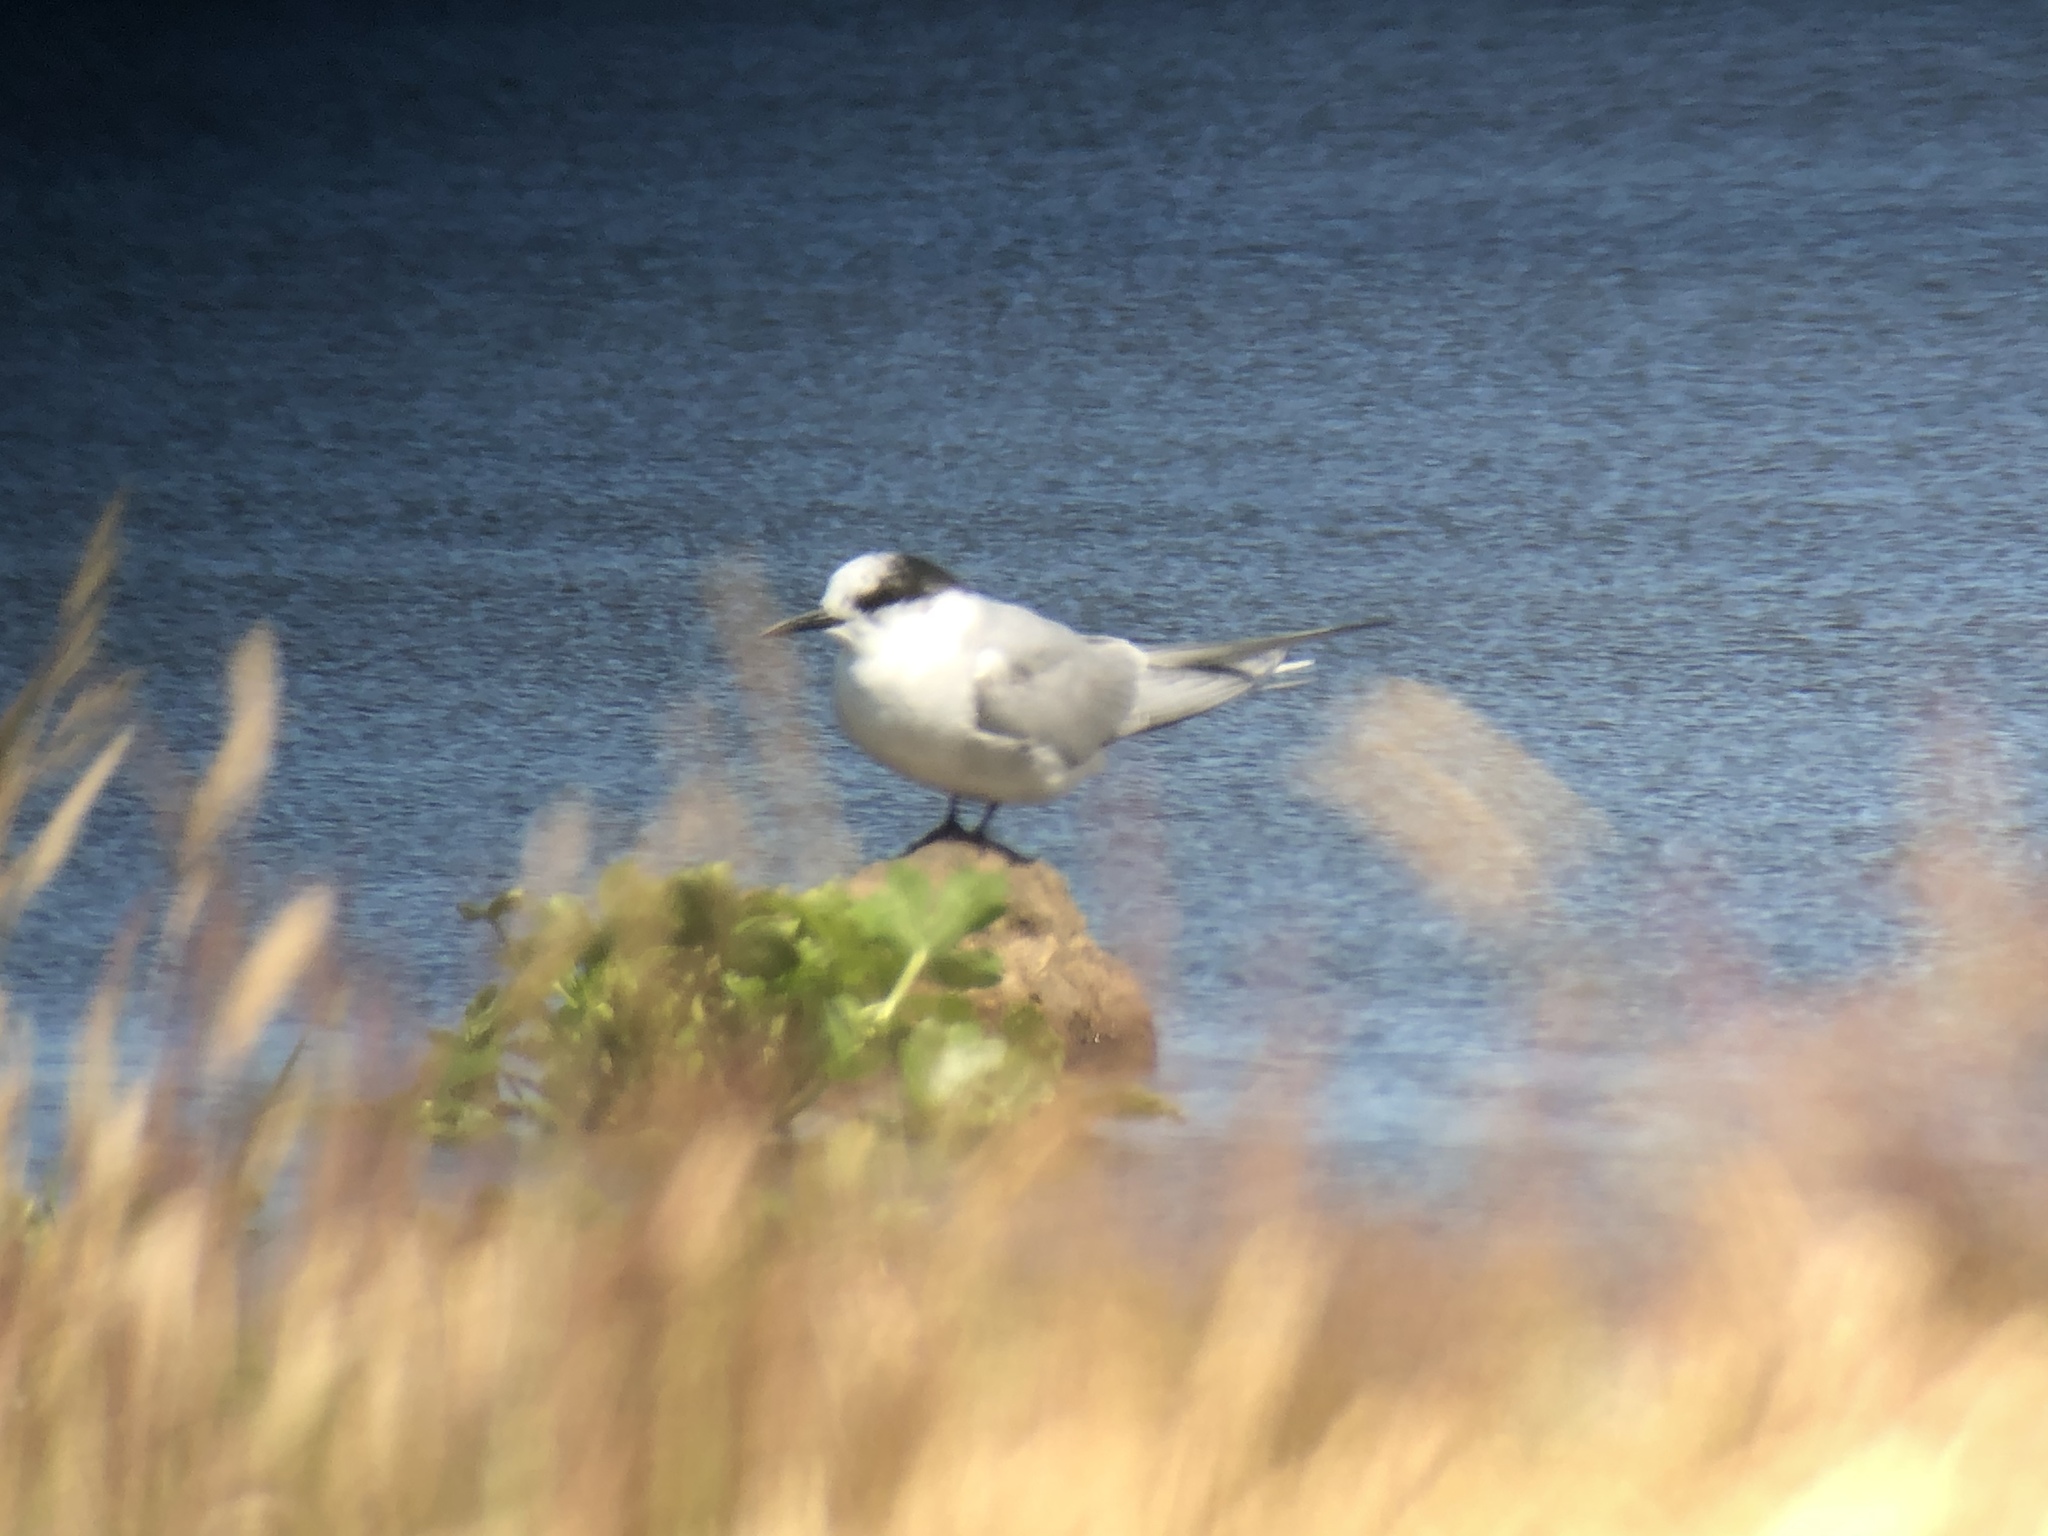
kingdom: Animalia
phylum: Chordata
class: Aves
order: Charadriiformes
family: Laridae
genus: Sterna
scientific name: Sterna paradisaea
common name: Arctic tern
